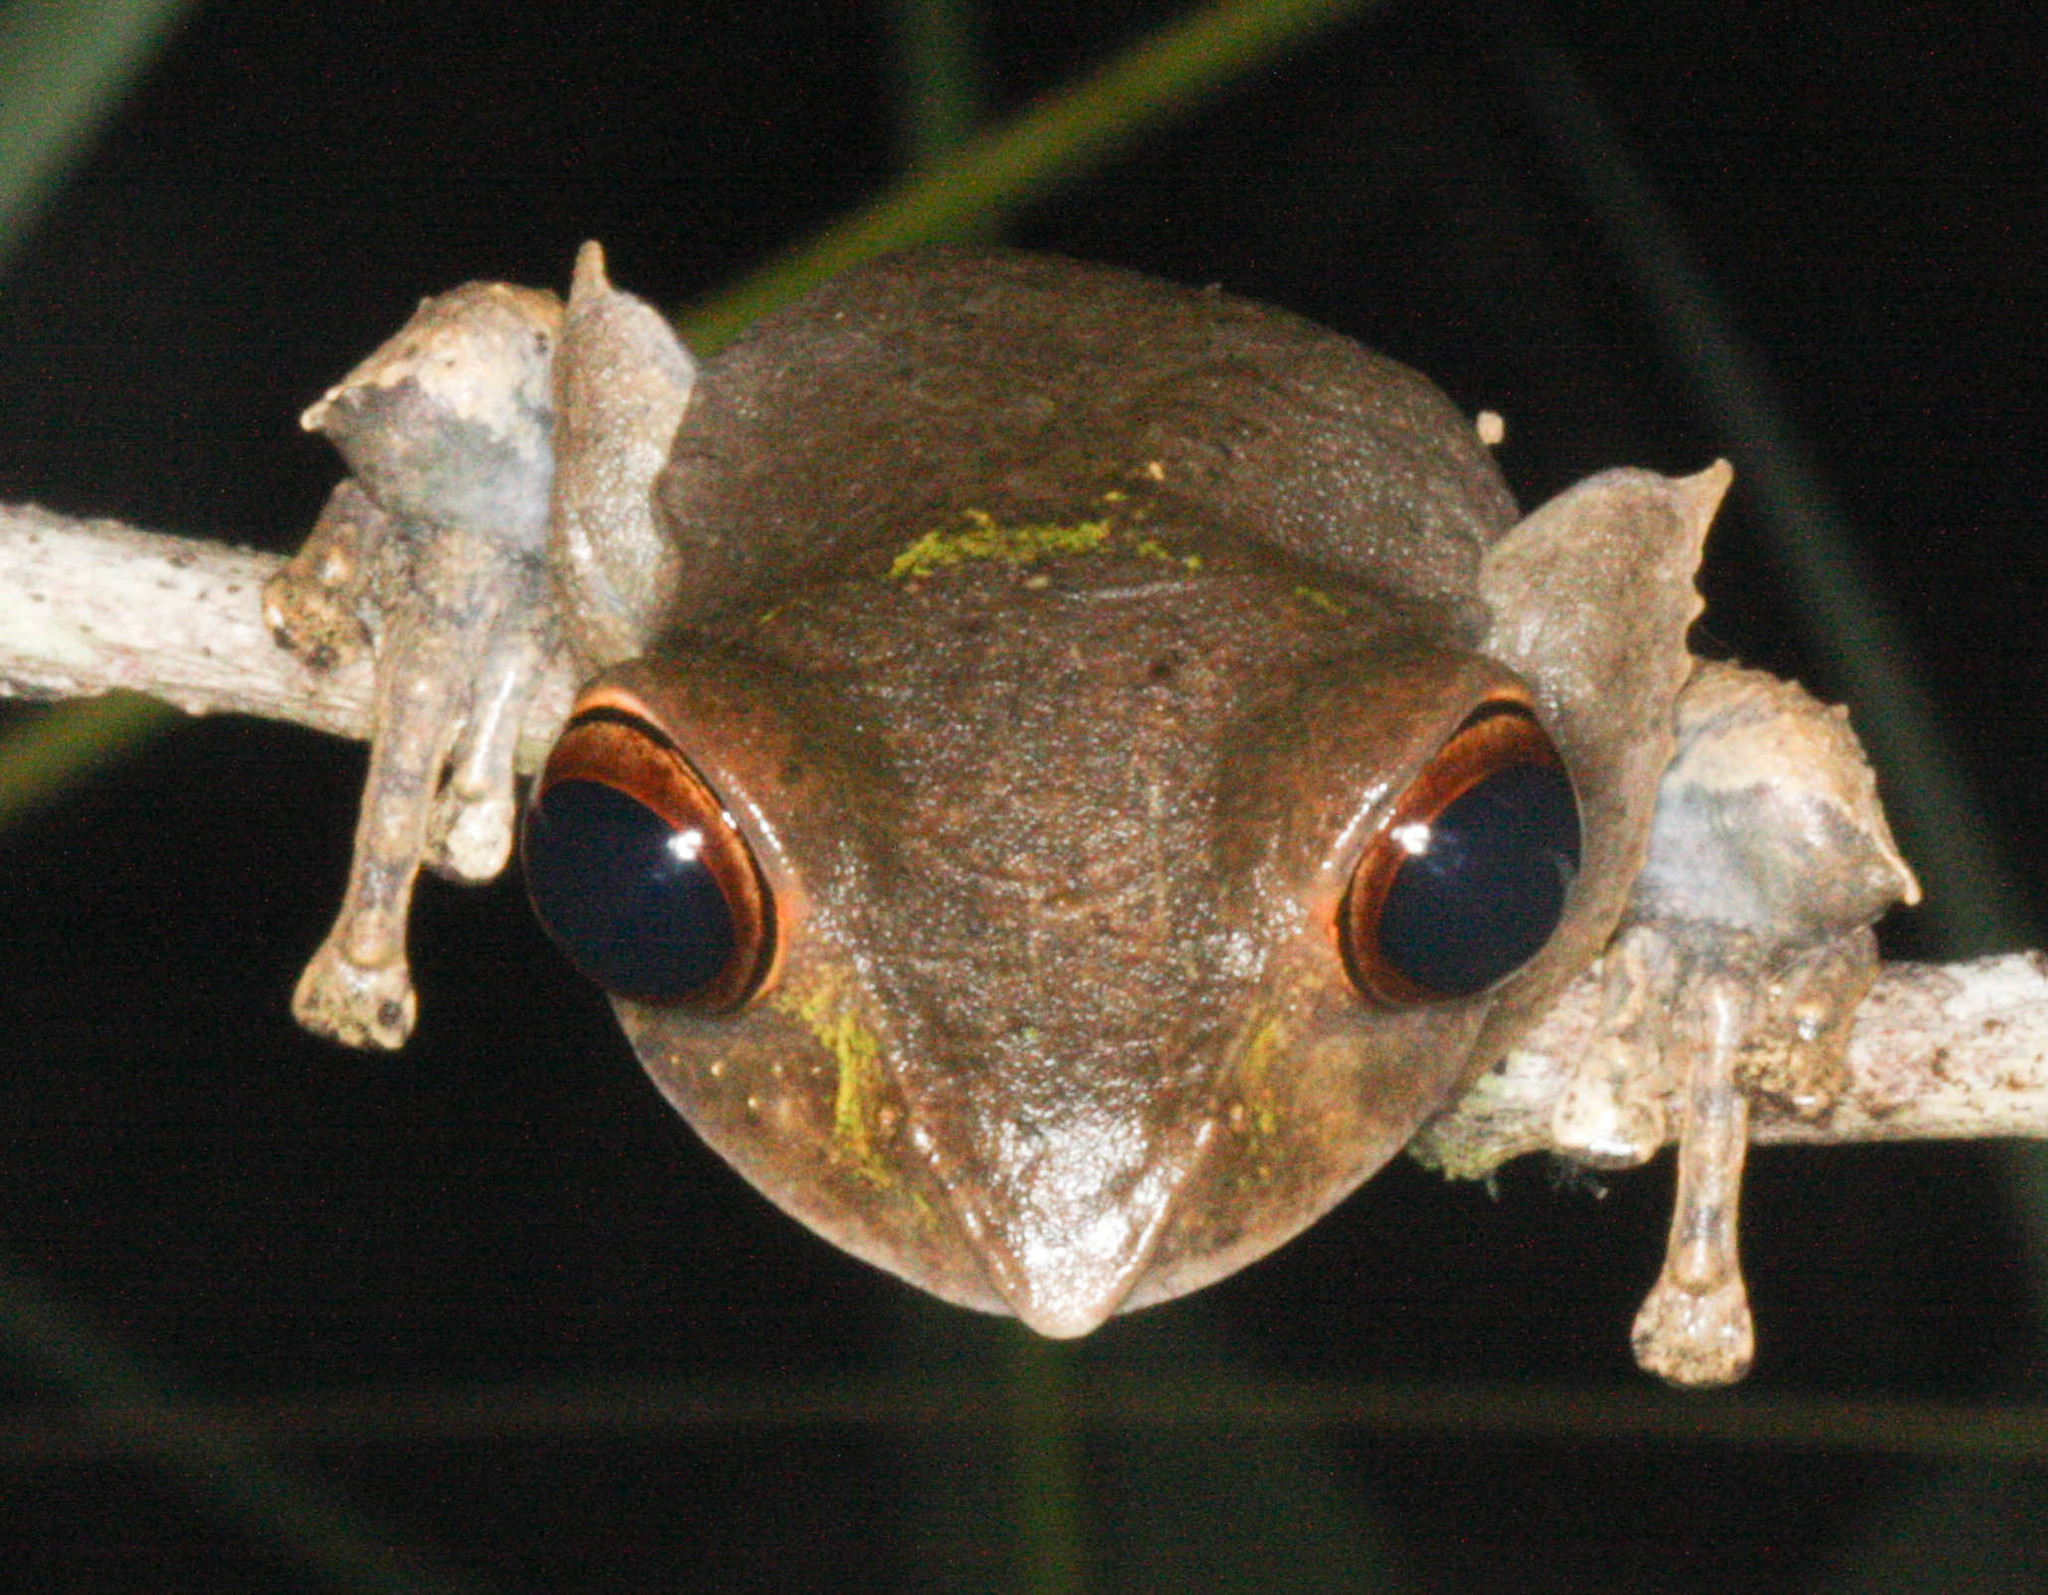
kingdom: Animalia
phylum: Chordata
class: Amphibia
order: Anura
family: Mantellidae
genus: Boophis
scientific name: Boophis madagascariensis
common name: Madagascar bright-eyed frog
